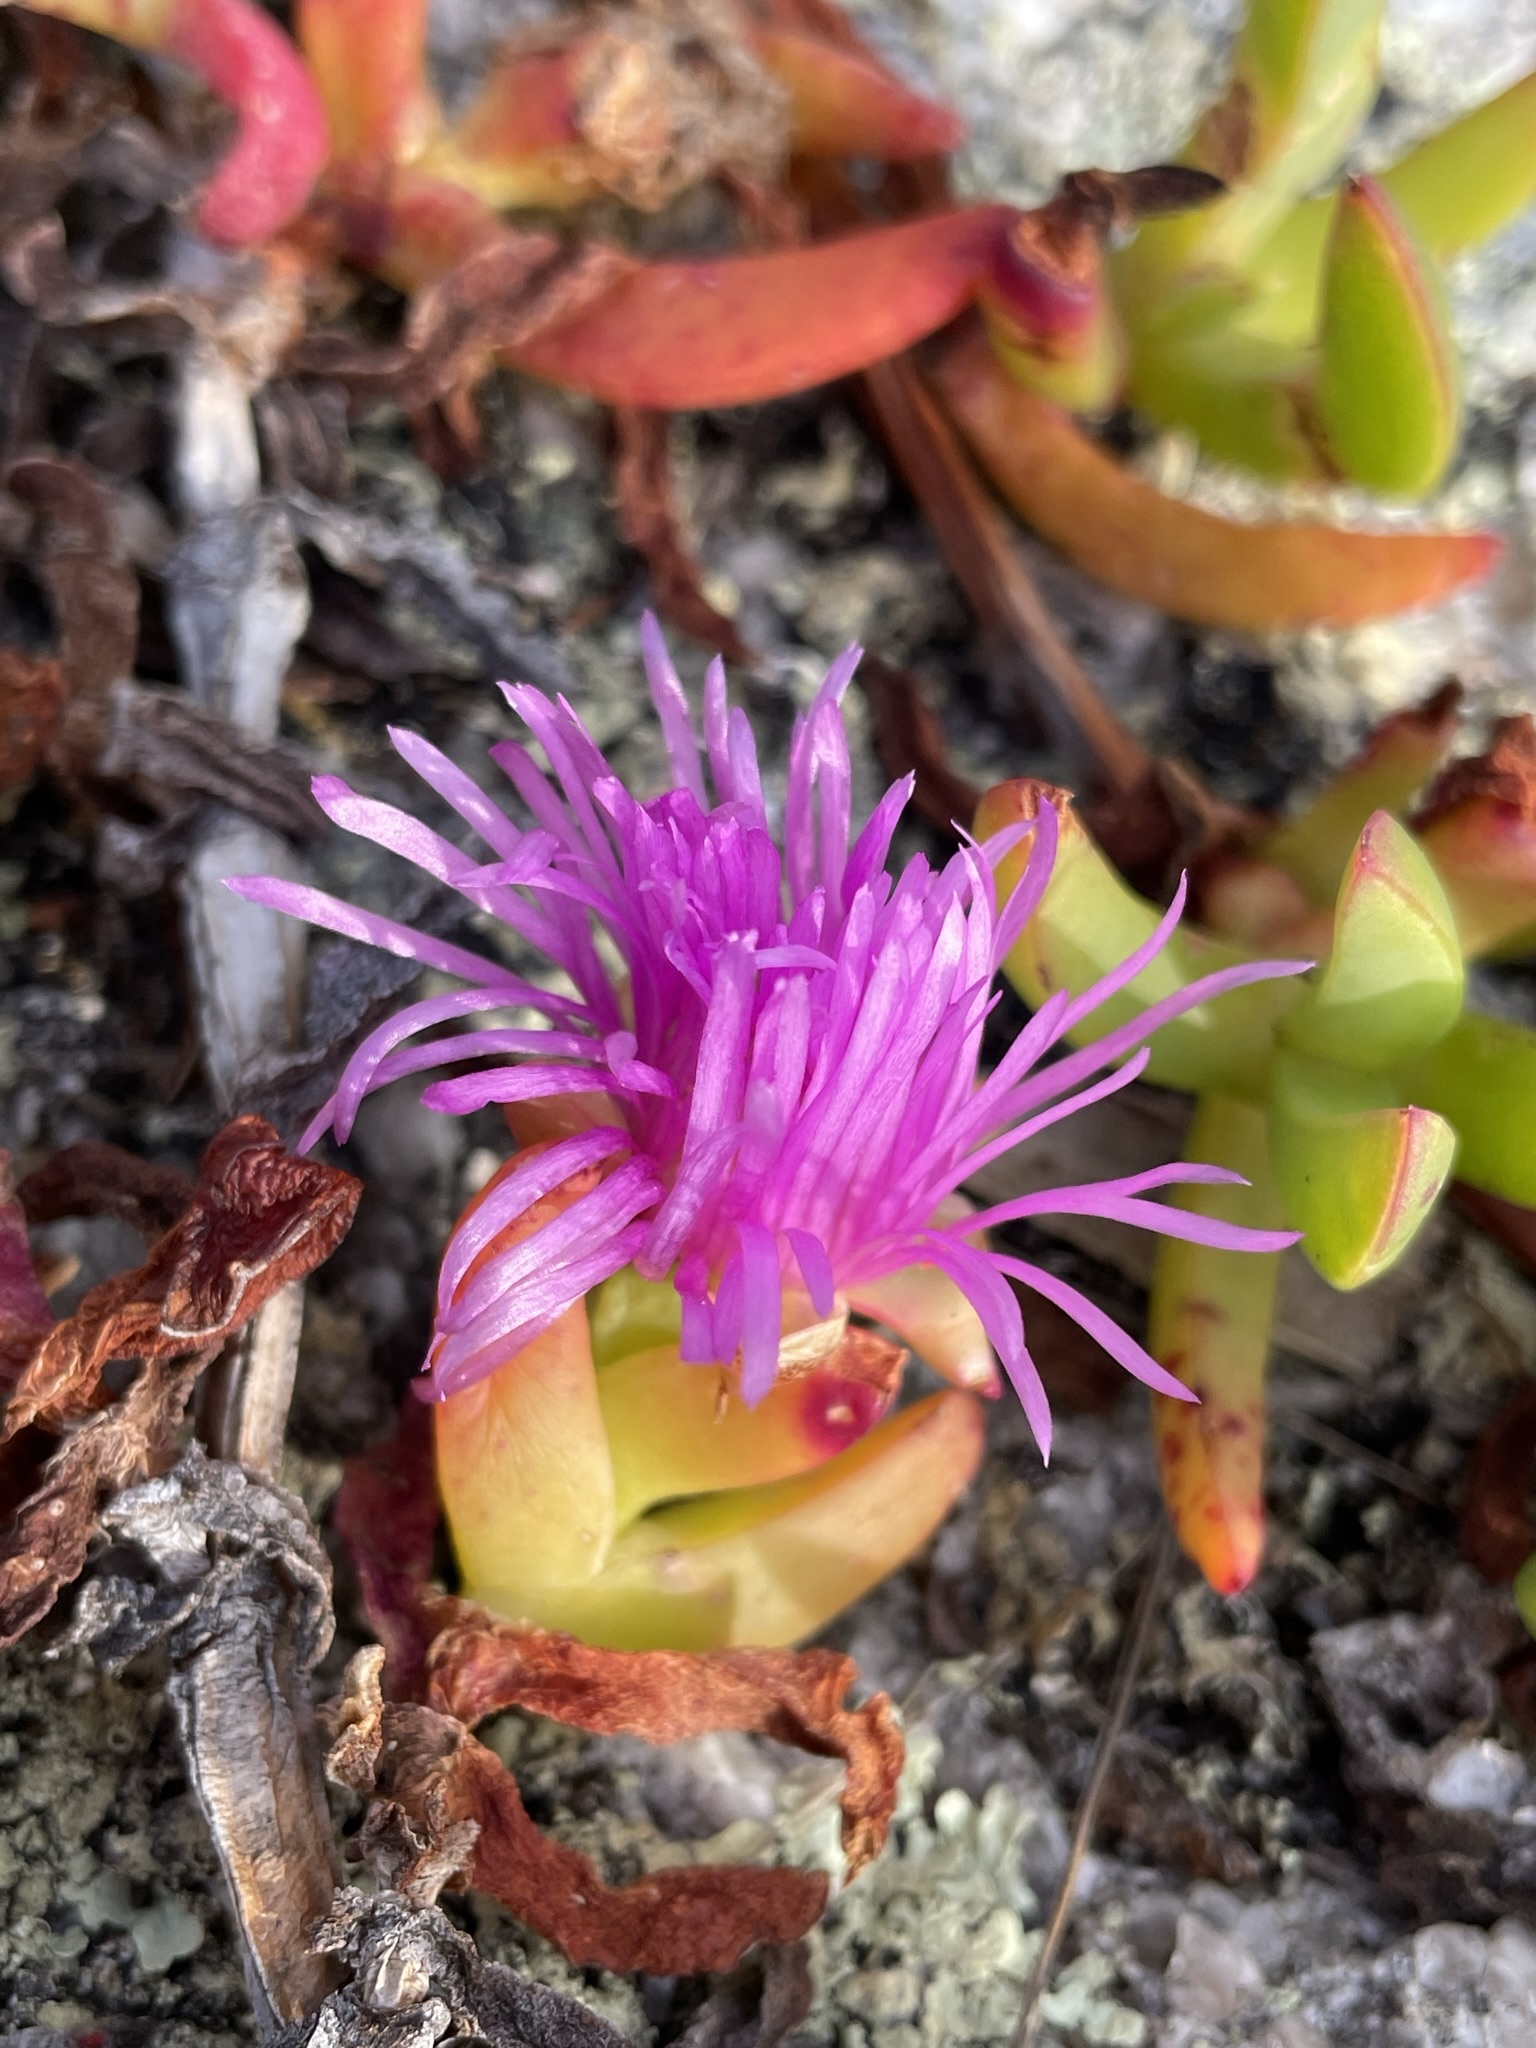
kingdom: Plantae
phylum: Tracheophyta
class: Magnoliopsida
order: Caryophyllales
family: Aizoaceae
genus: Carpobrotus
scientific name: Carpobrotus rossii
